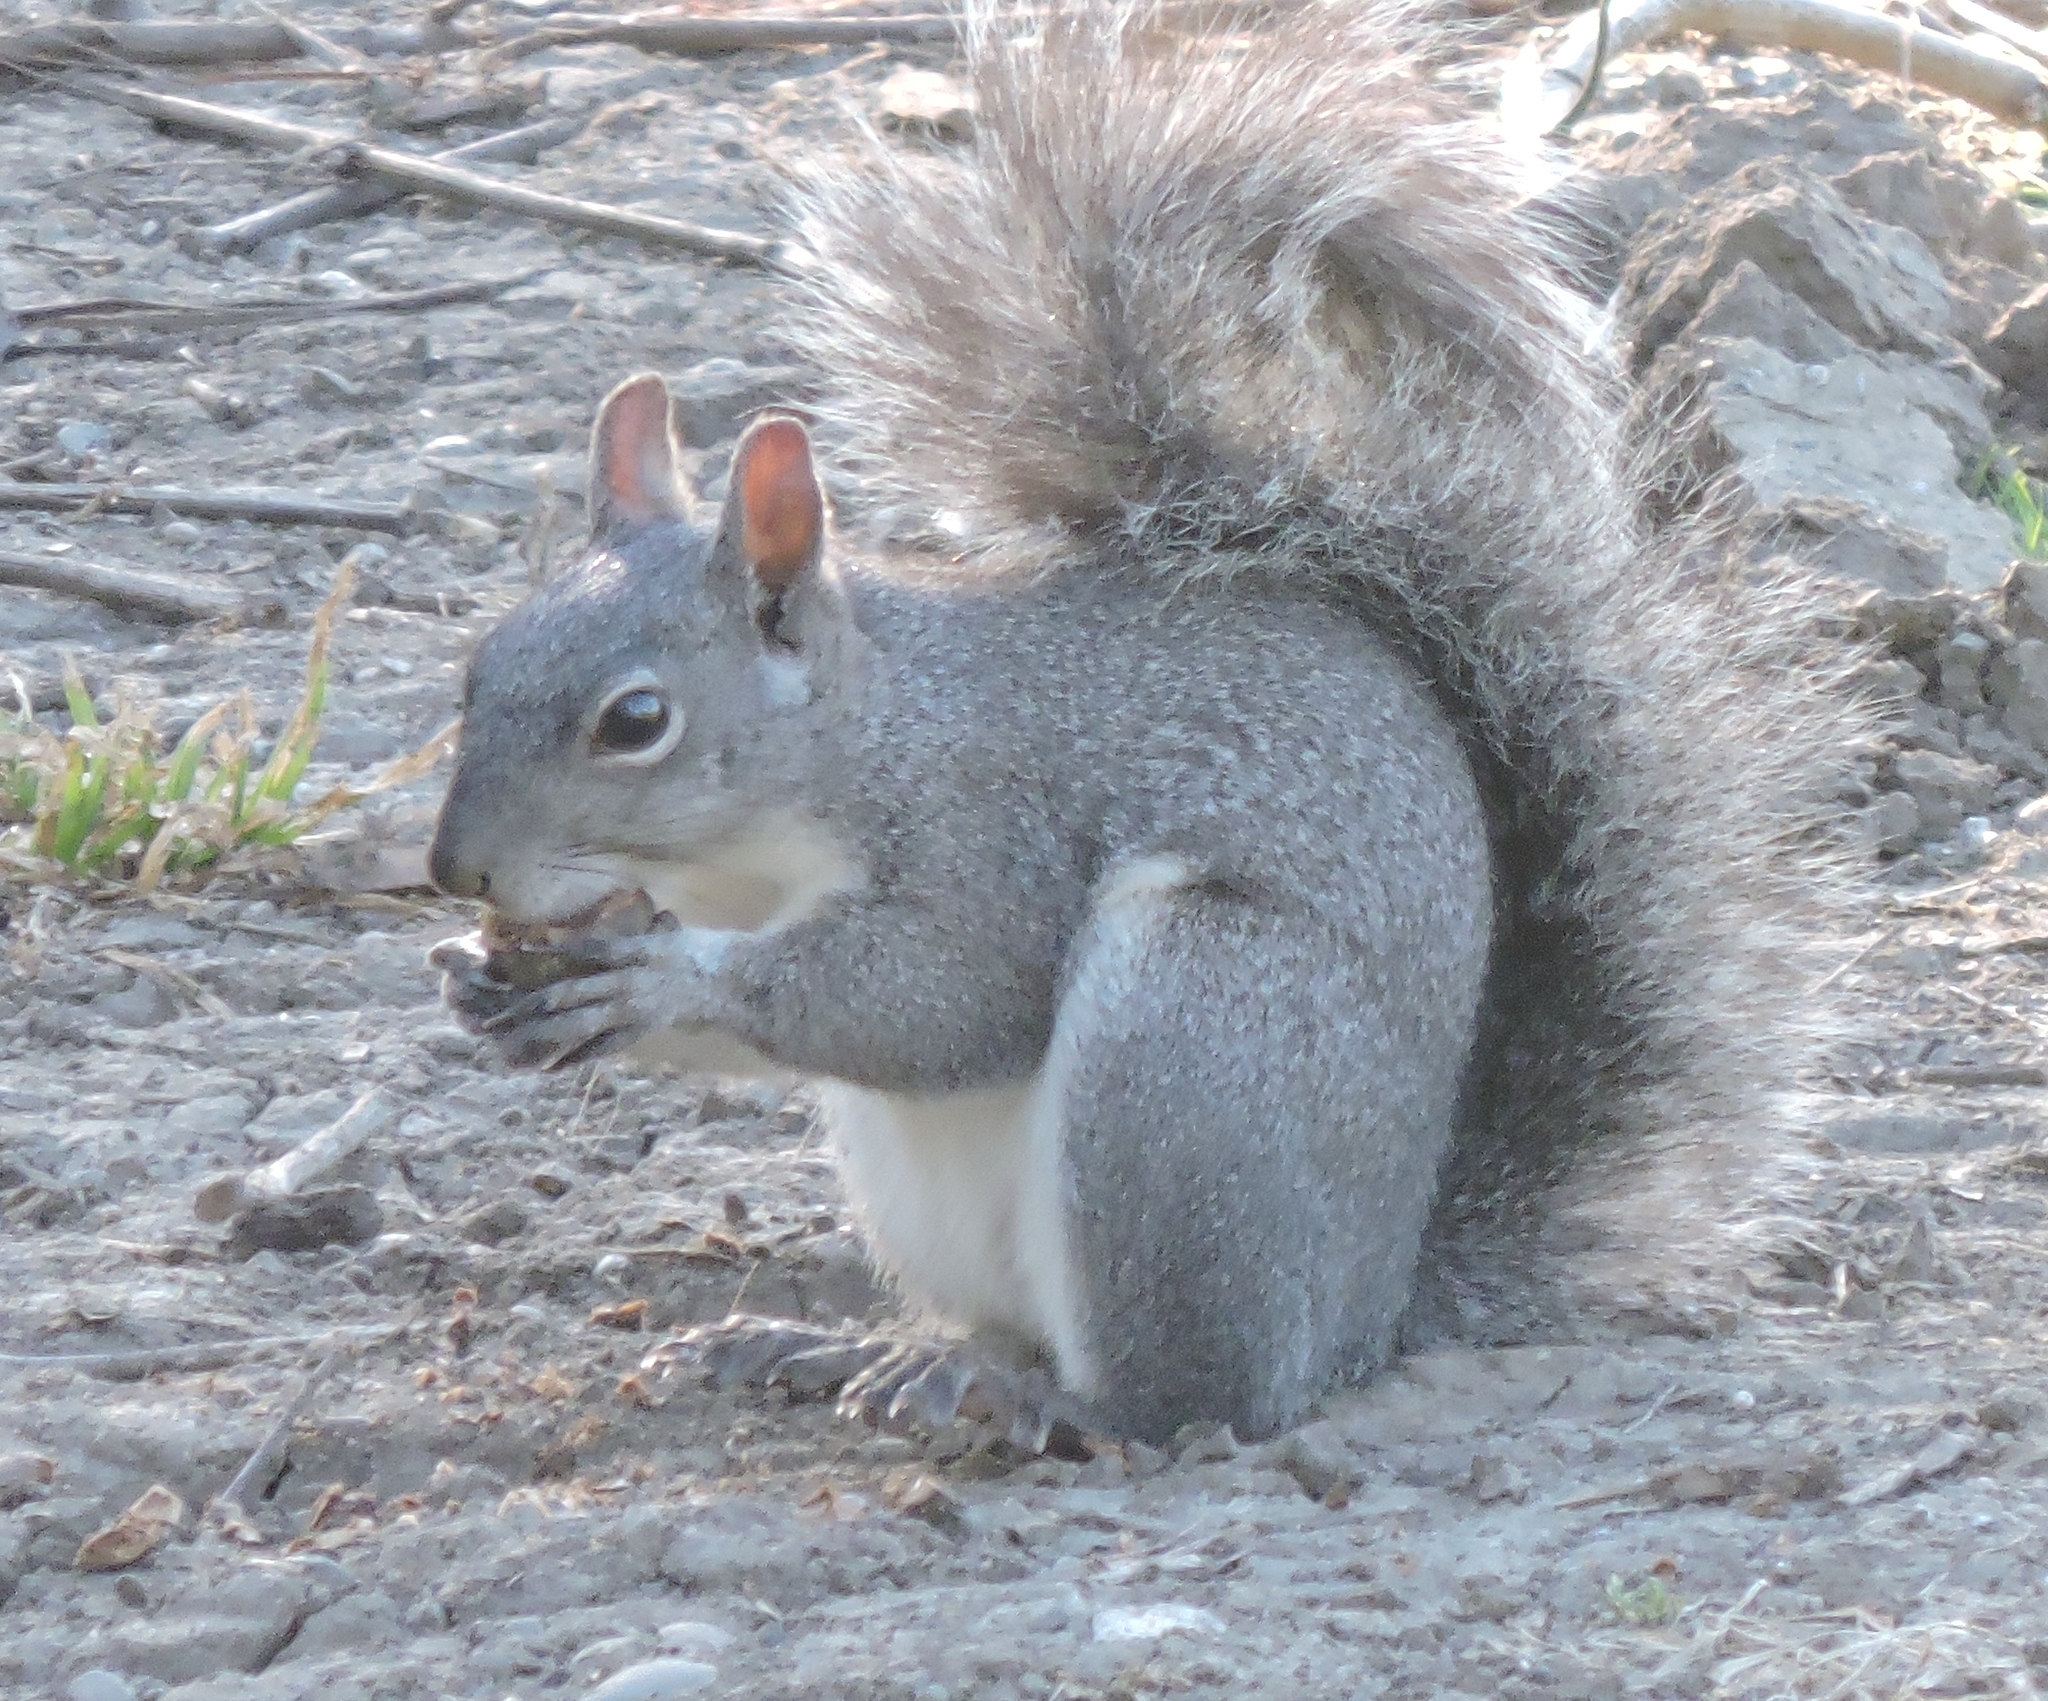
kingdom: Animalia
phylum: Chordata
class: Mammalia
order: Rodentia
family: Sciuridae
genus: Sciurus
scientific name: Sciurus griseus
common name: Western gray squirrel
